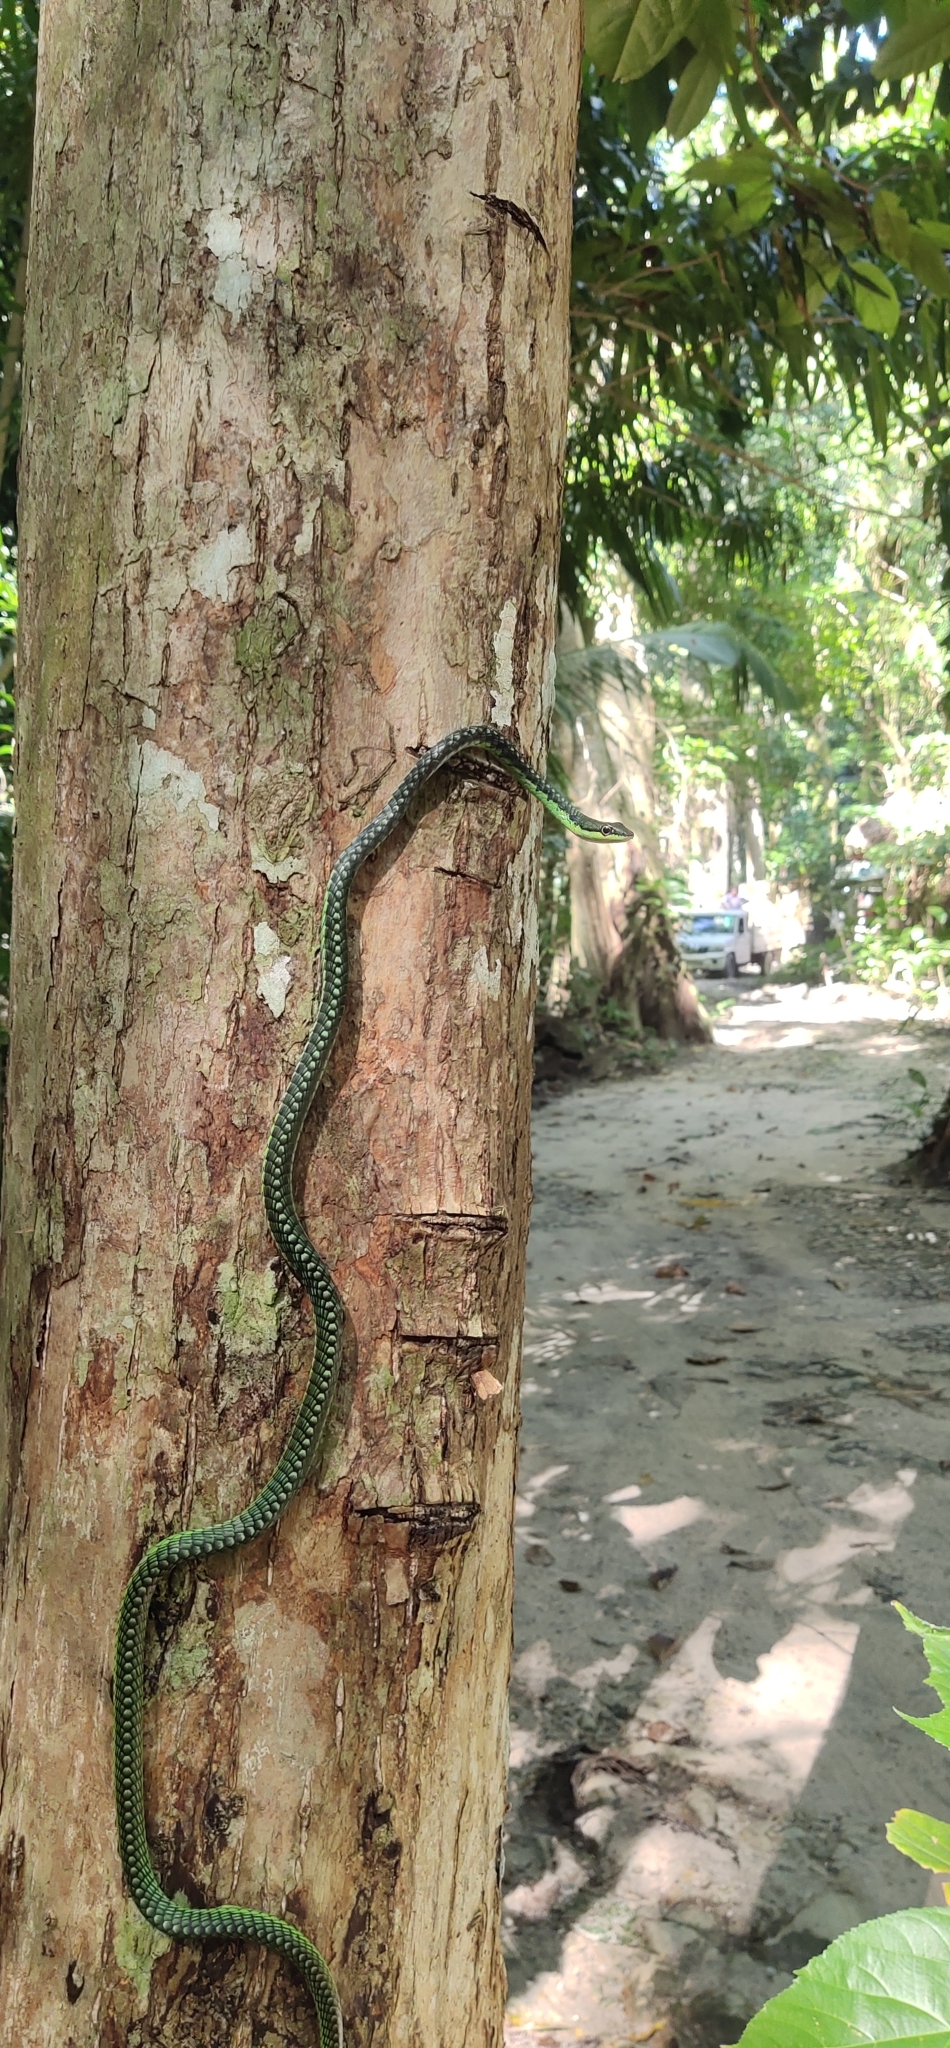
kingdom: Animalia
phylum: Chordata
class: Squamata
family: Colubridae
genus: Dendrelaphis
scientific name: Dendrelaphis andamanensis
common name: Andaman bronze-back
